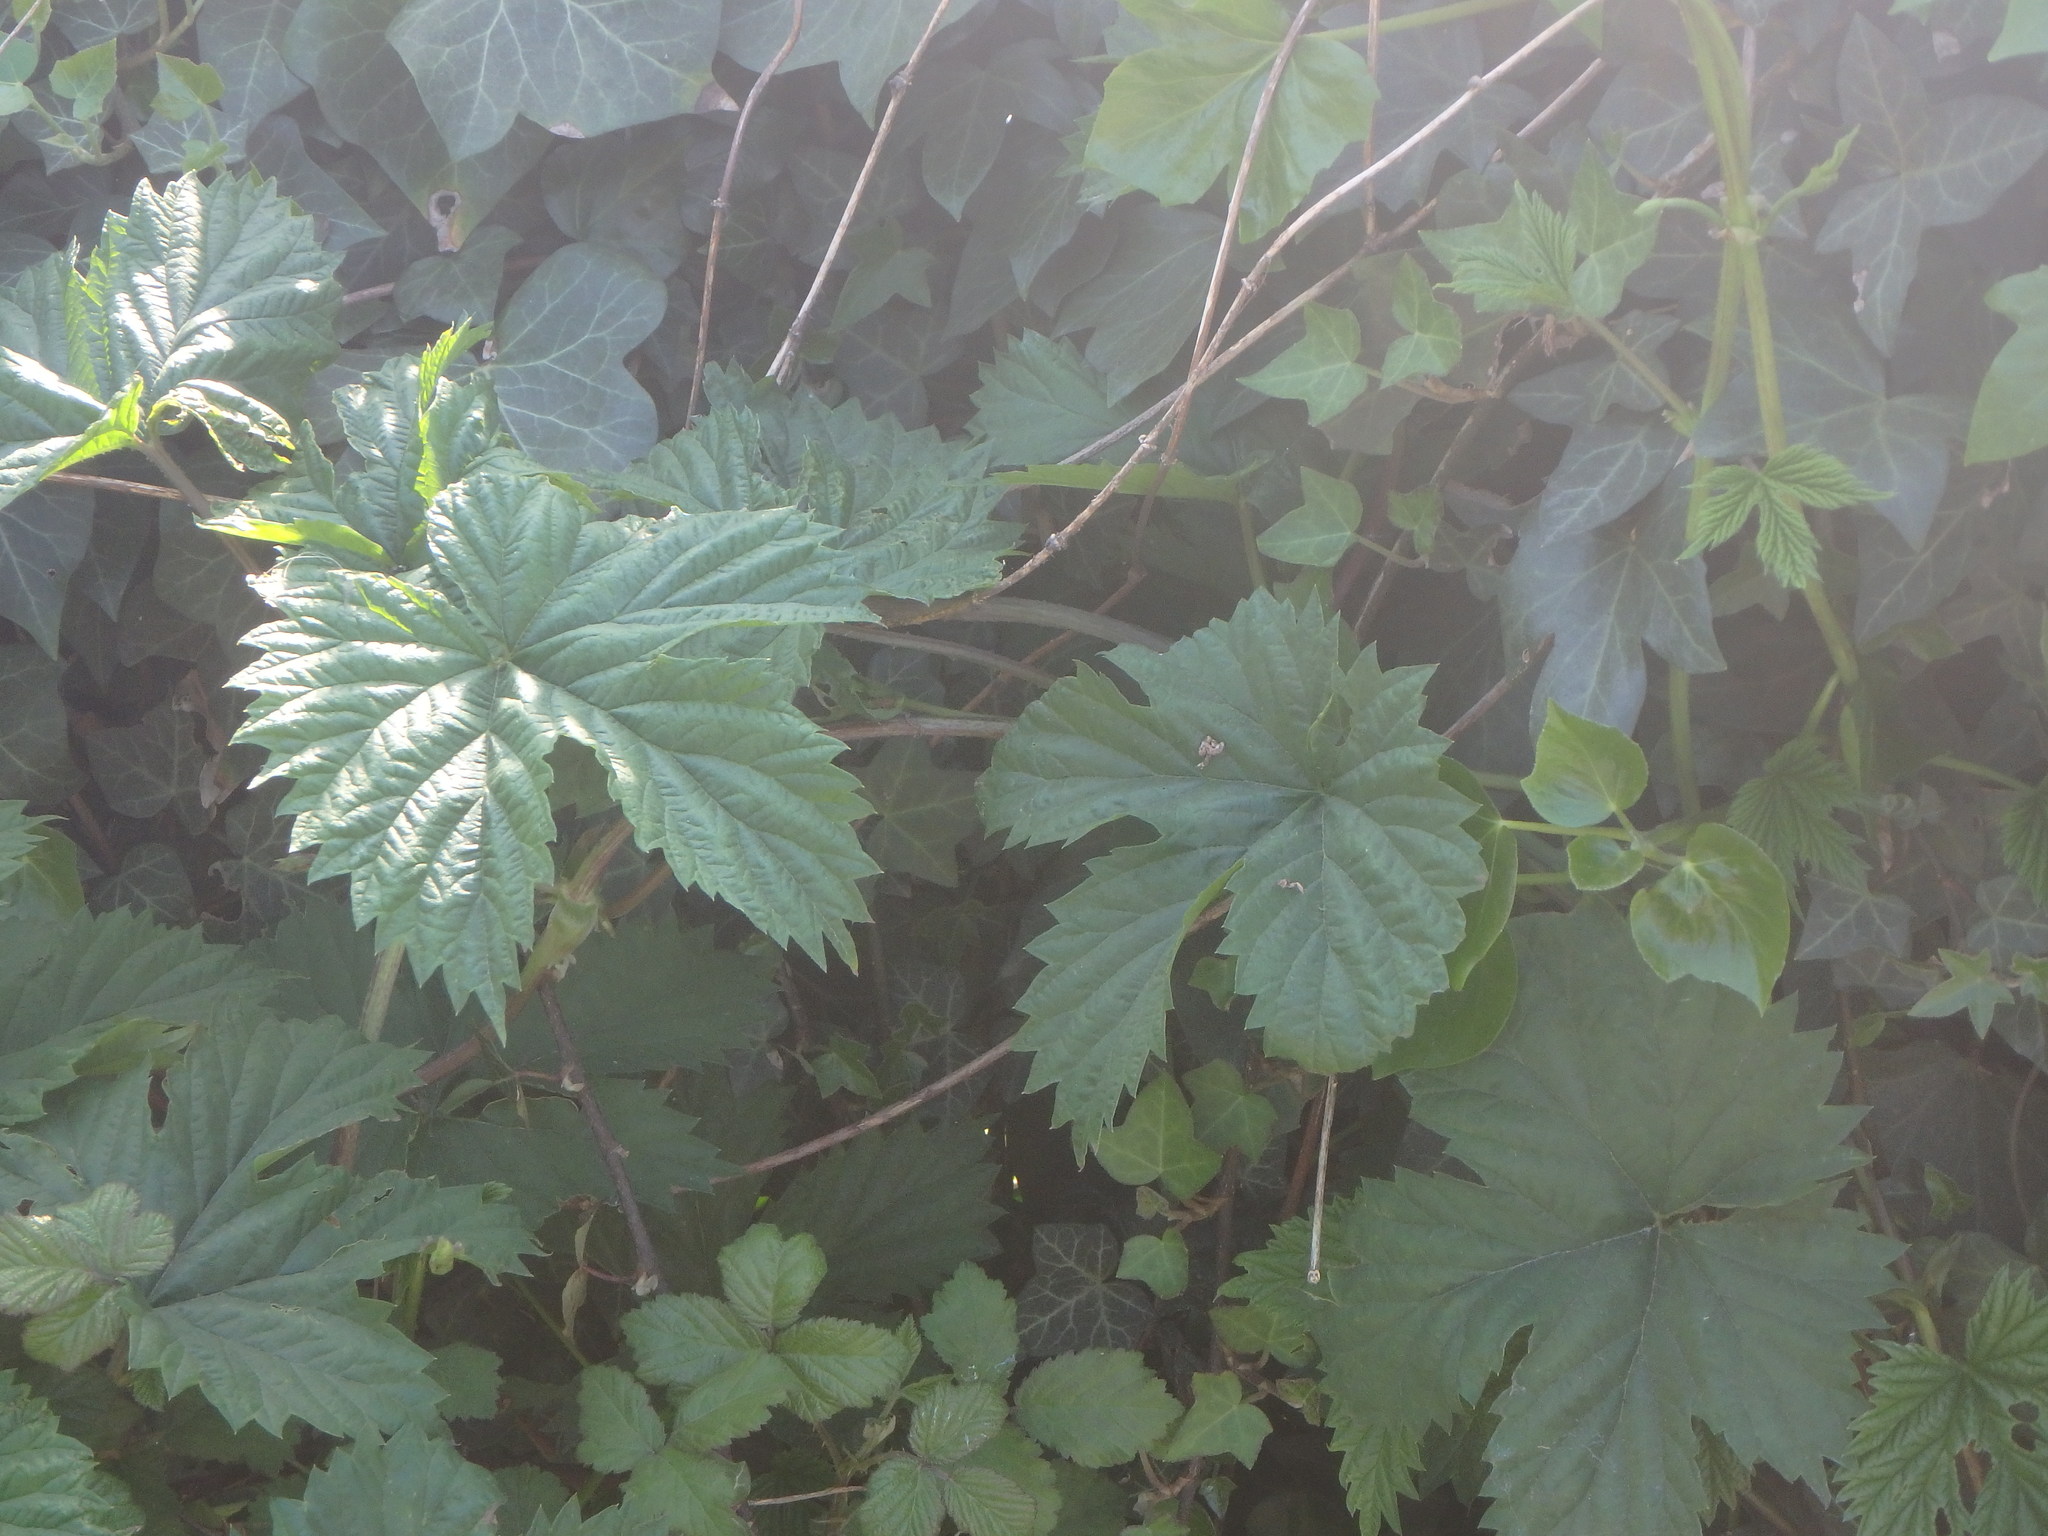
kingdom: Plantae
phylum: Tracheophyta
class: Magnoliopsida
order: Rosales
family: Cannabaceae
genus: Humulus
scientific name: Humulus lupulus
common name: Hop
